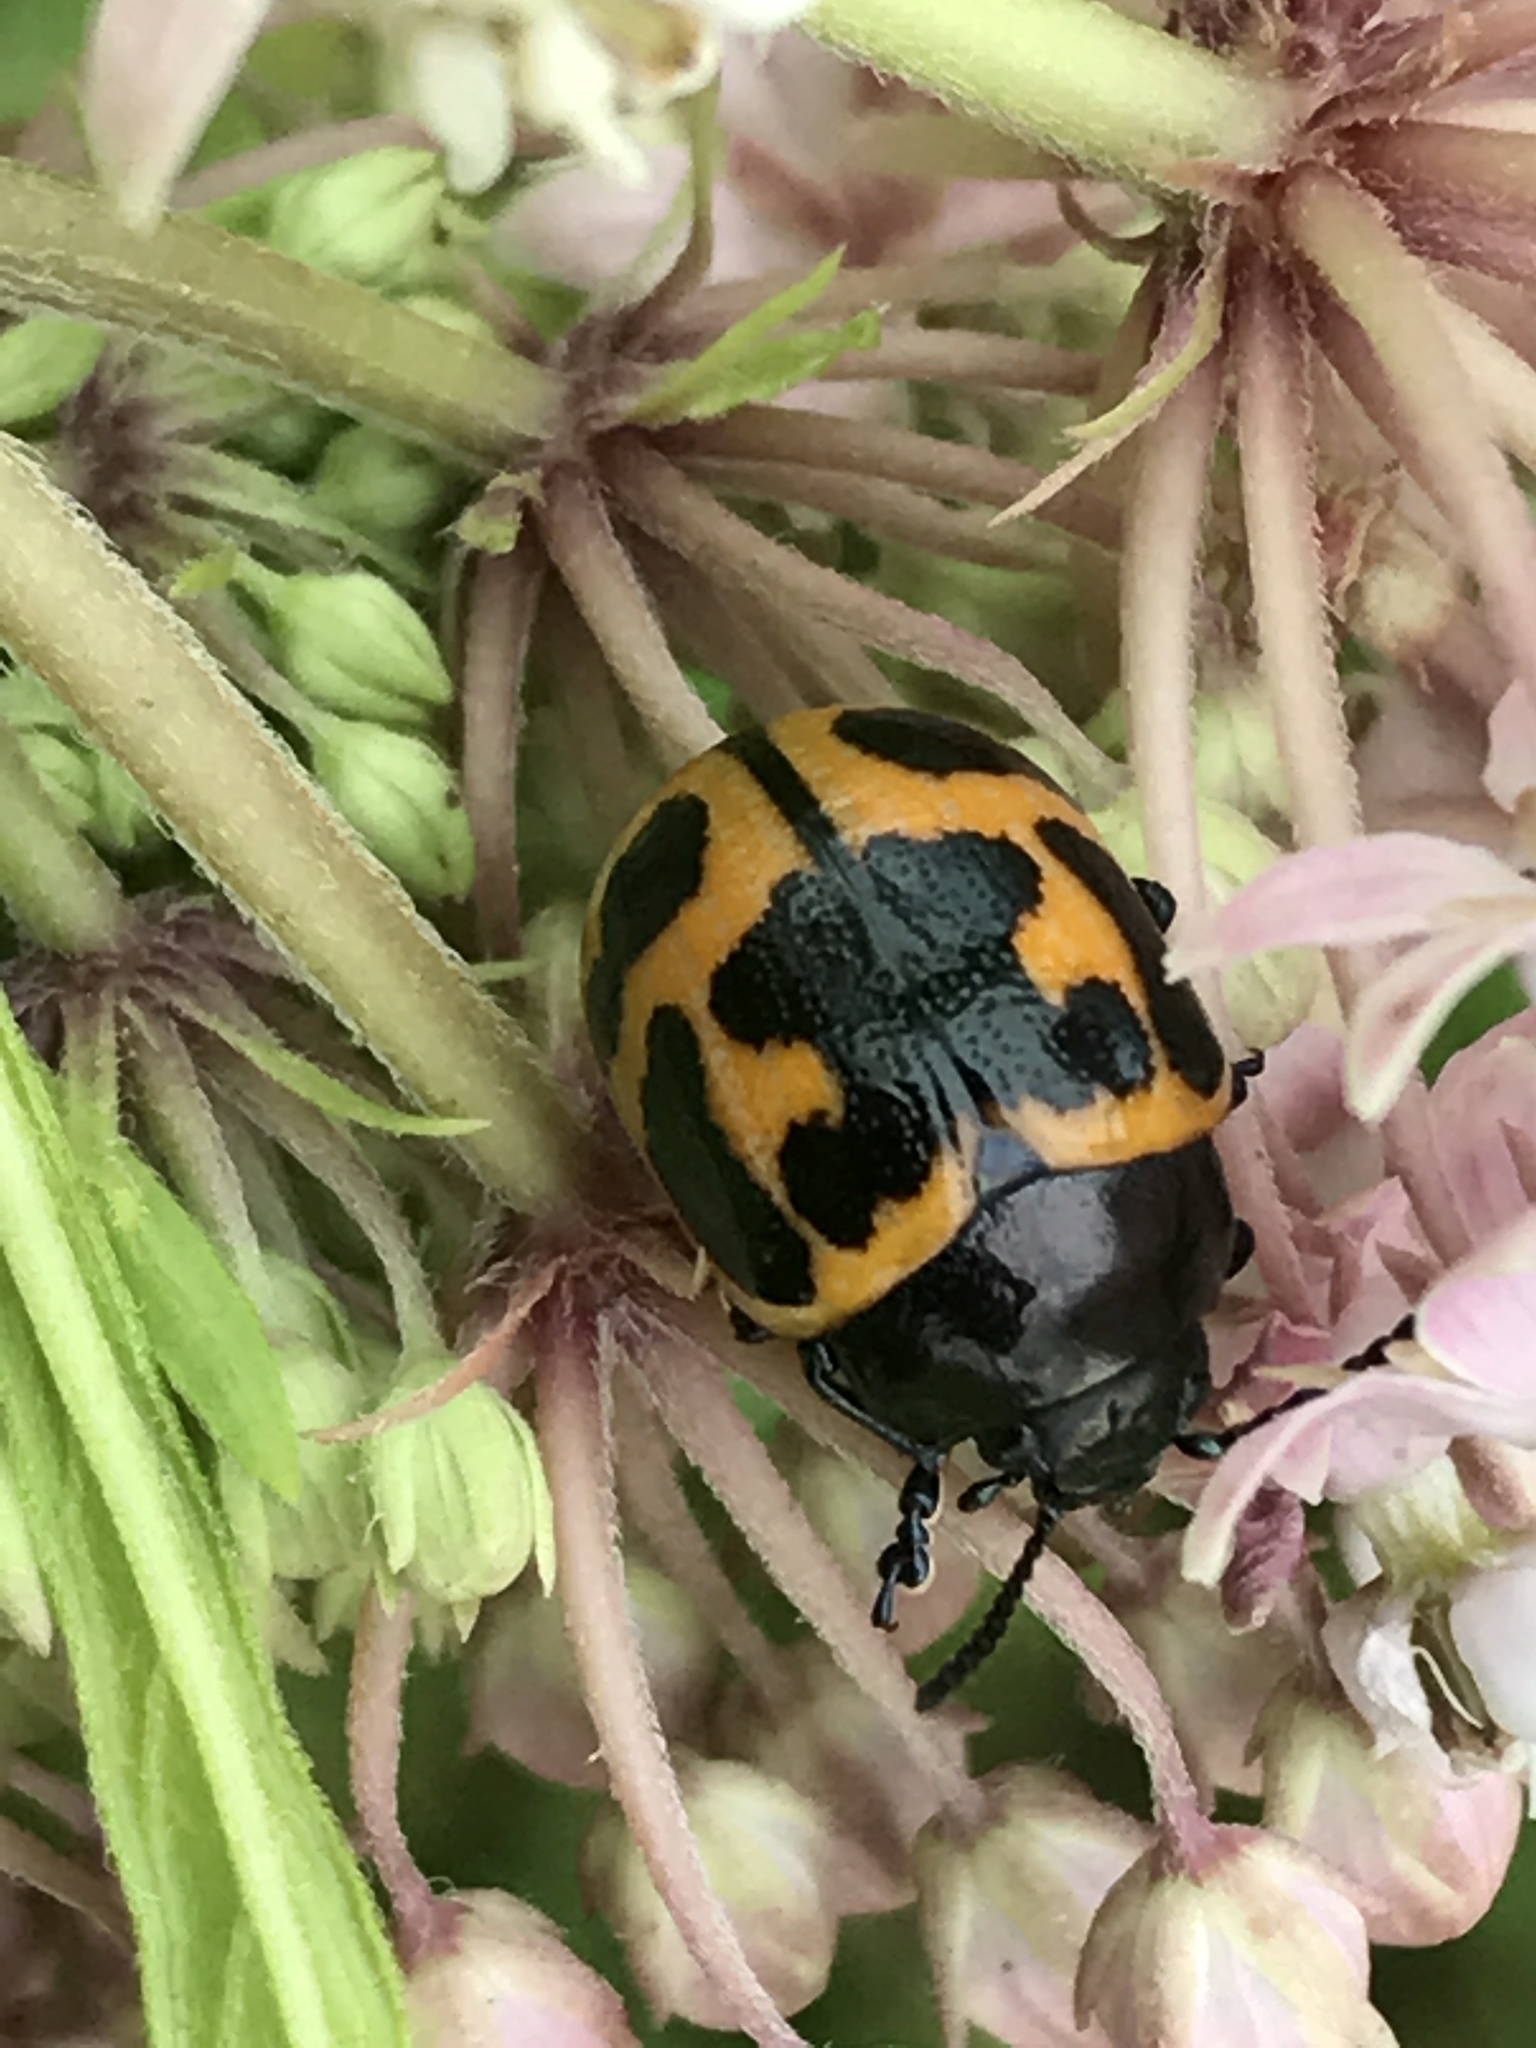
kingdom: Animalia
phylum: Arthropoda
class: Insecta
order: Coleoptera
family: Chrysomelidae
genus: Labidomera
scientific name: Labidomera clivicollis
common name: Swamp milkweed leaf beetle
